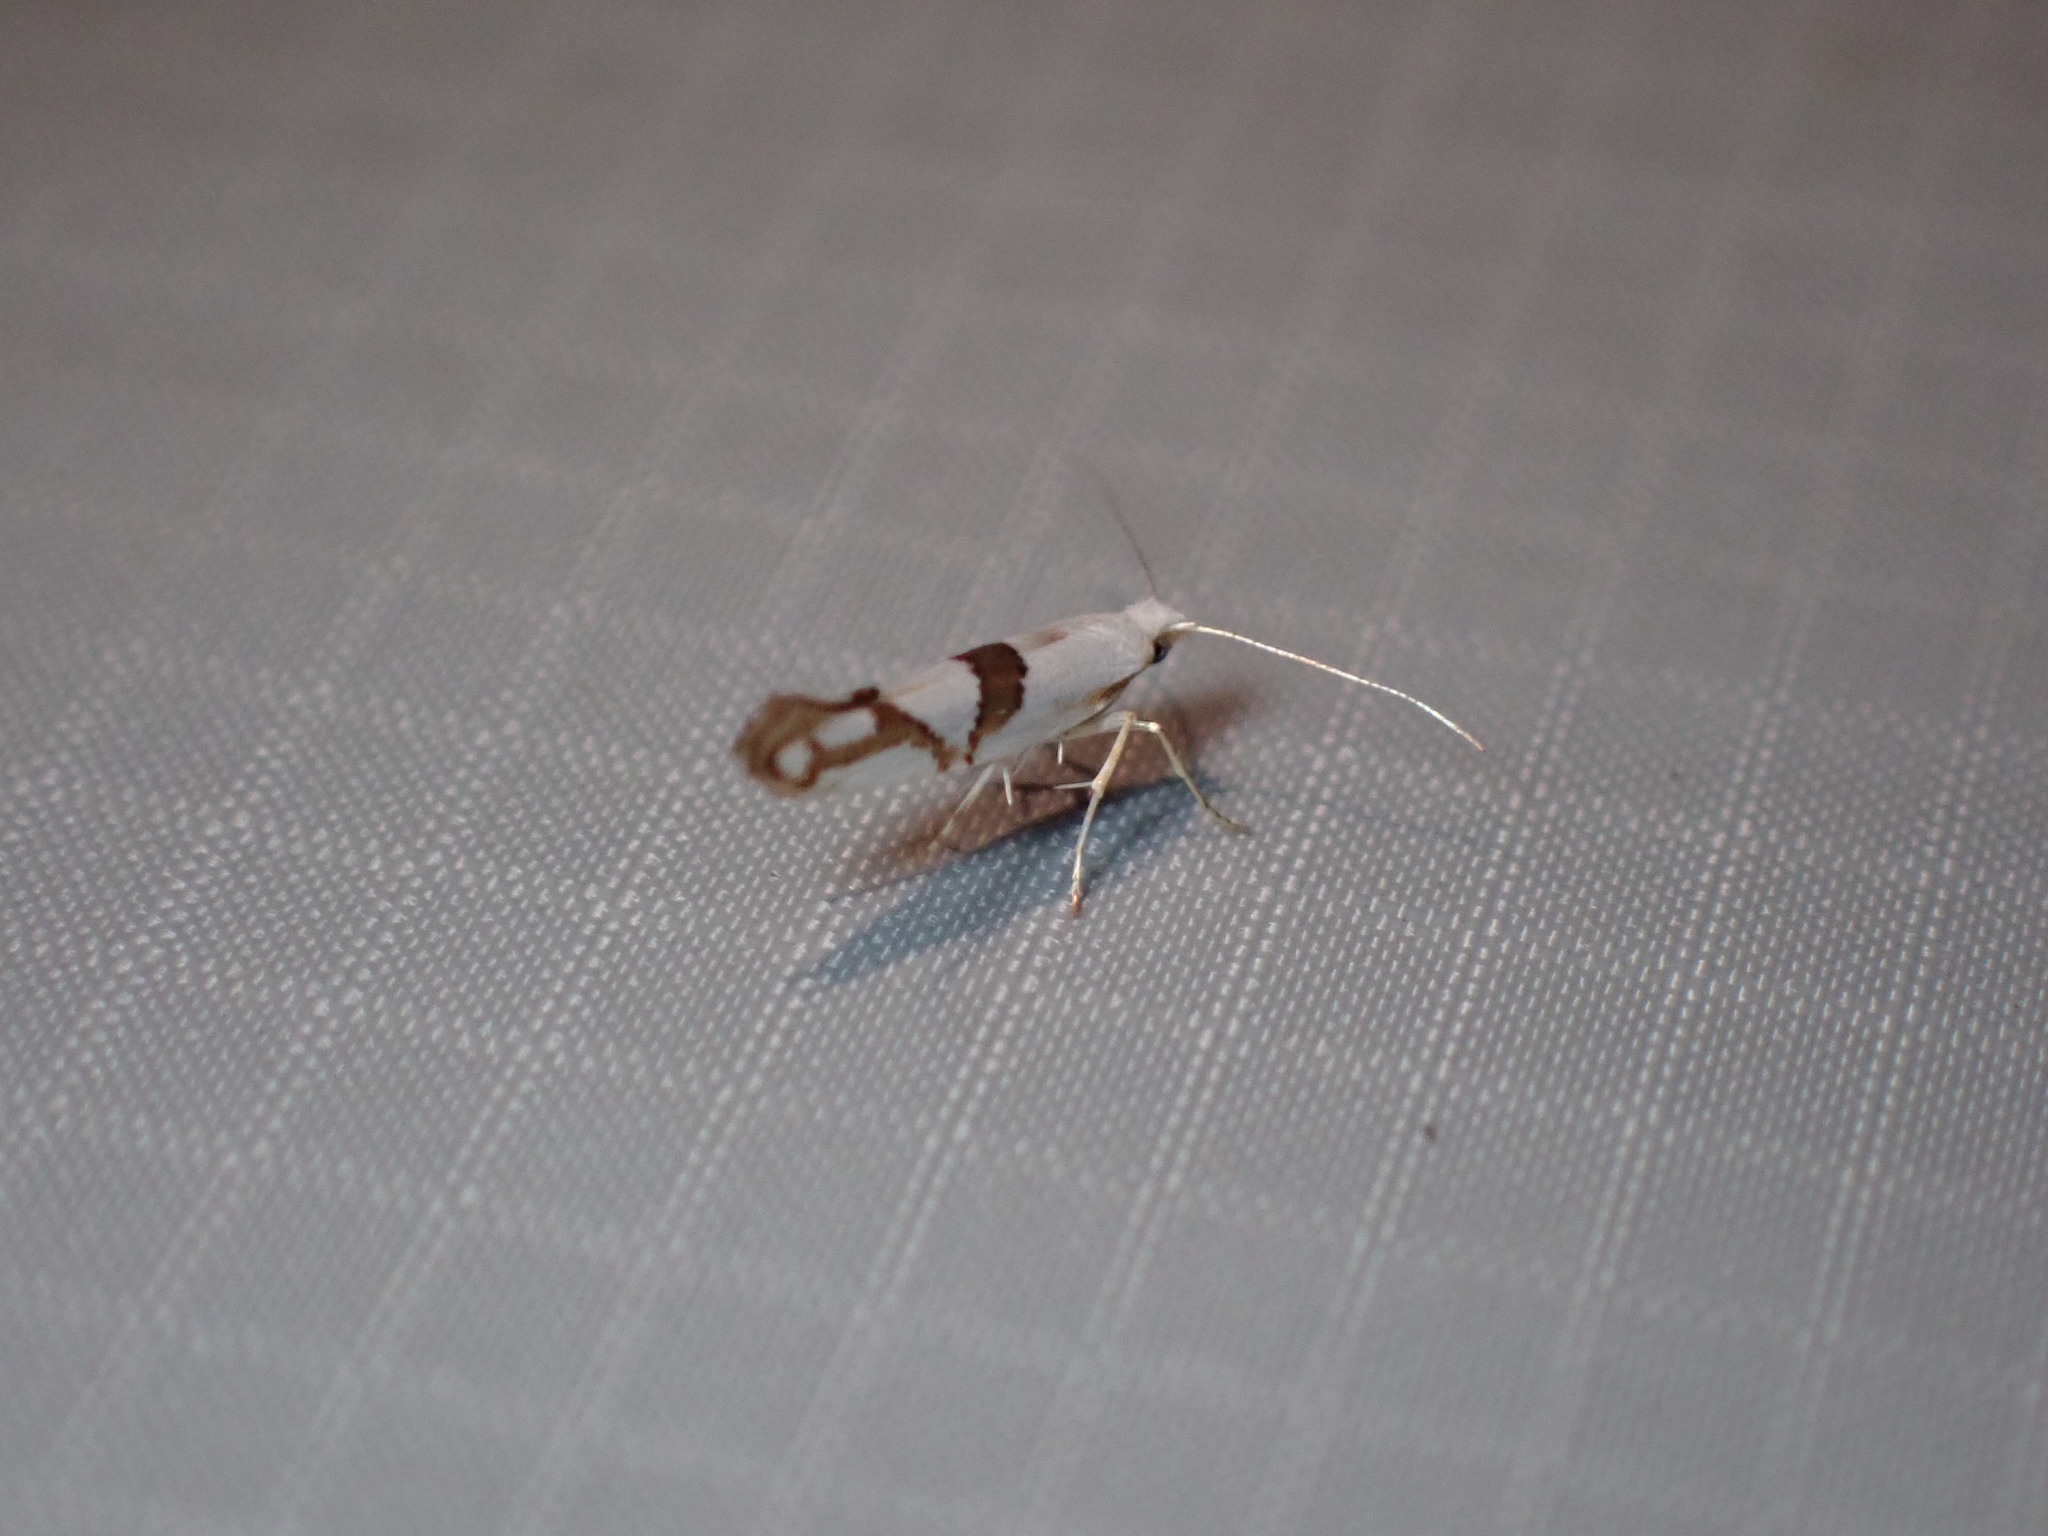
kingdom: Animalia
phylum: Arthropoda
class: Insecta
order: Lepidoptera
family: Argyresthiidae
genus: Argyresthia
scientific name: Argyresthia oreasella
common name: Cherry shoot borer moth
